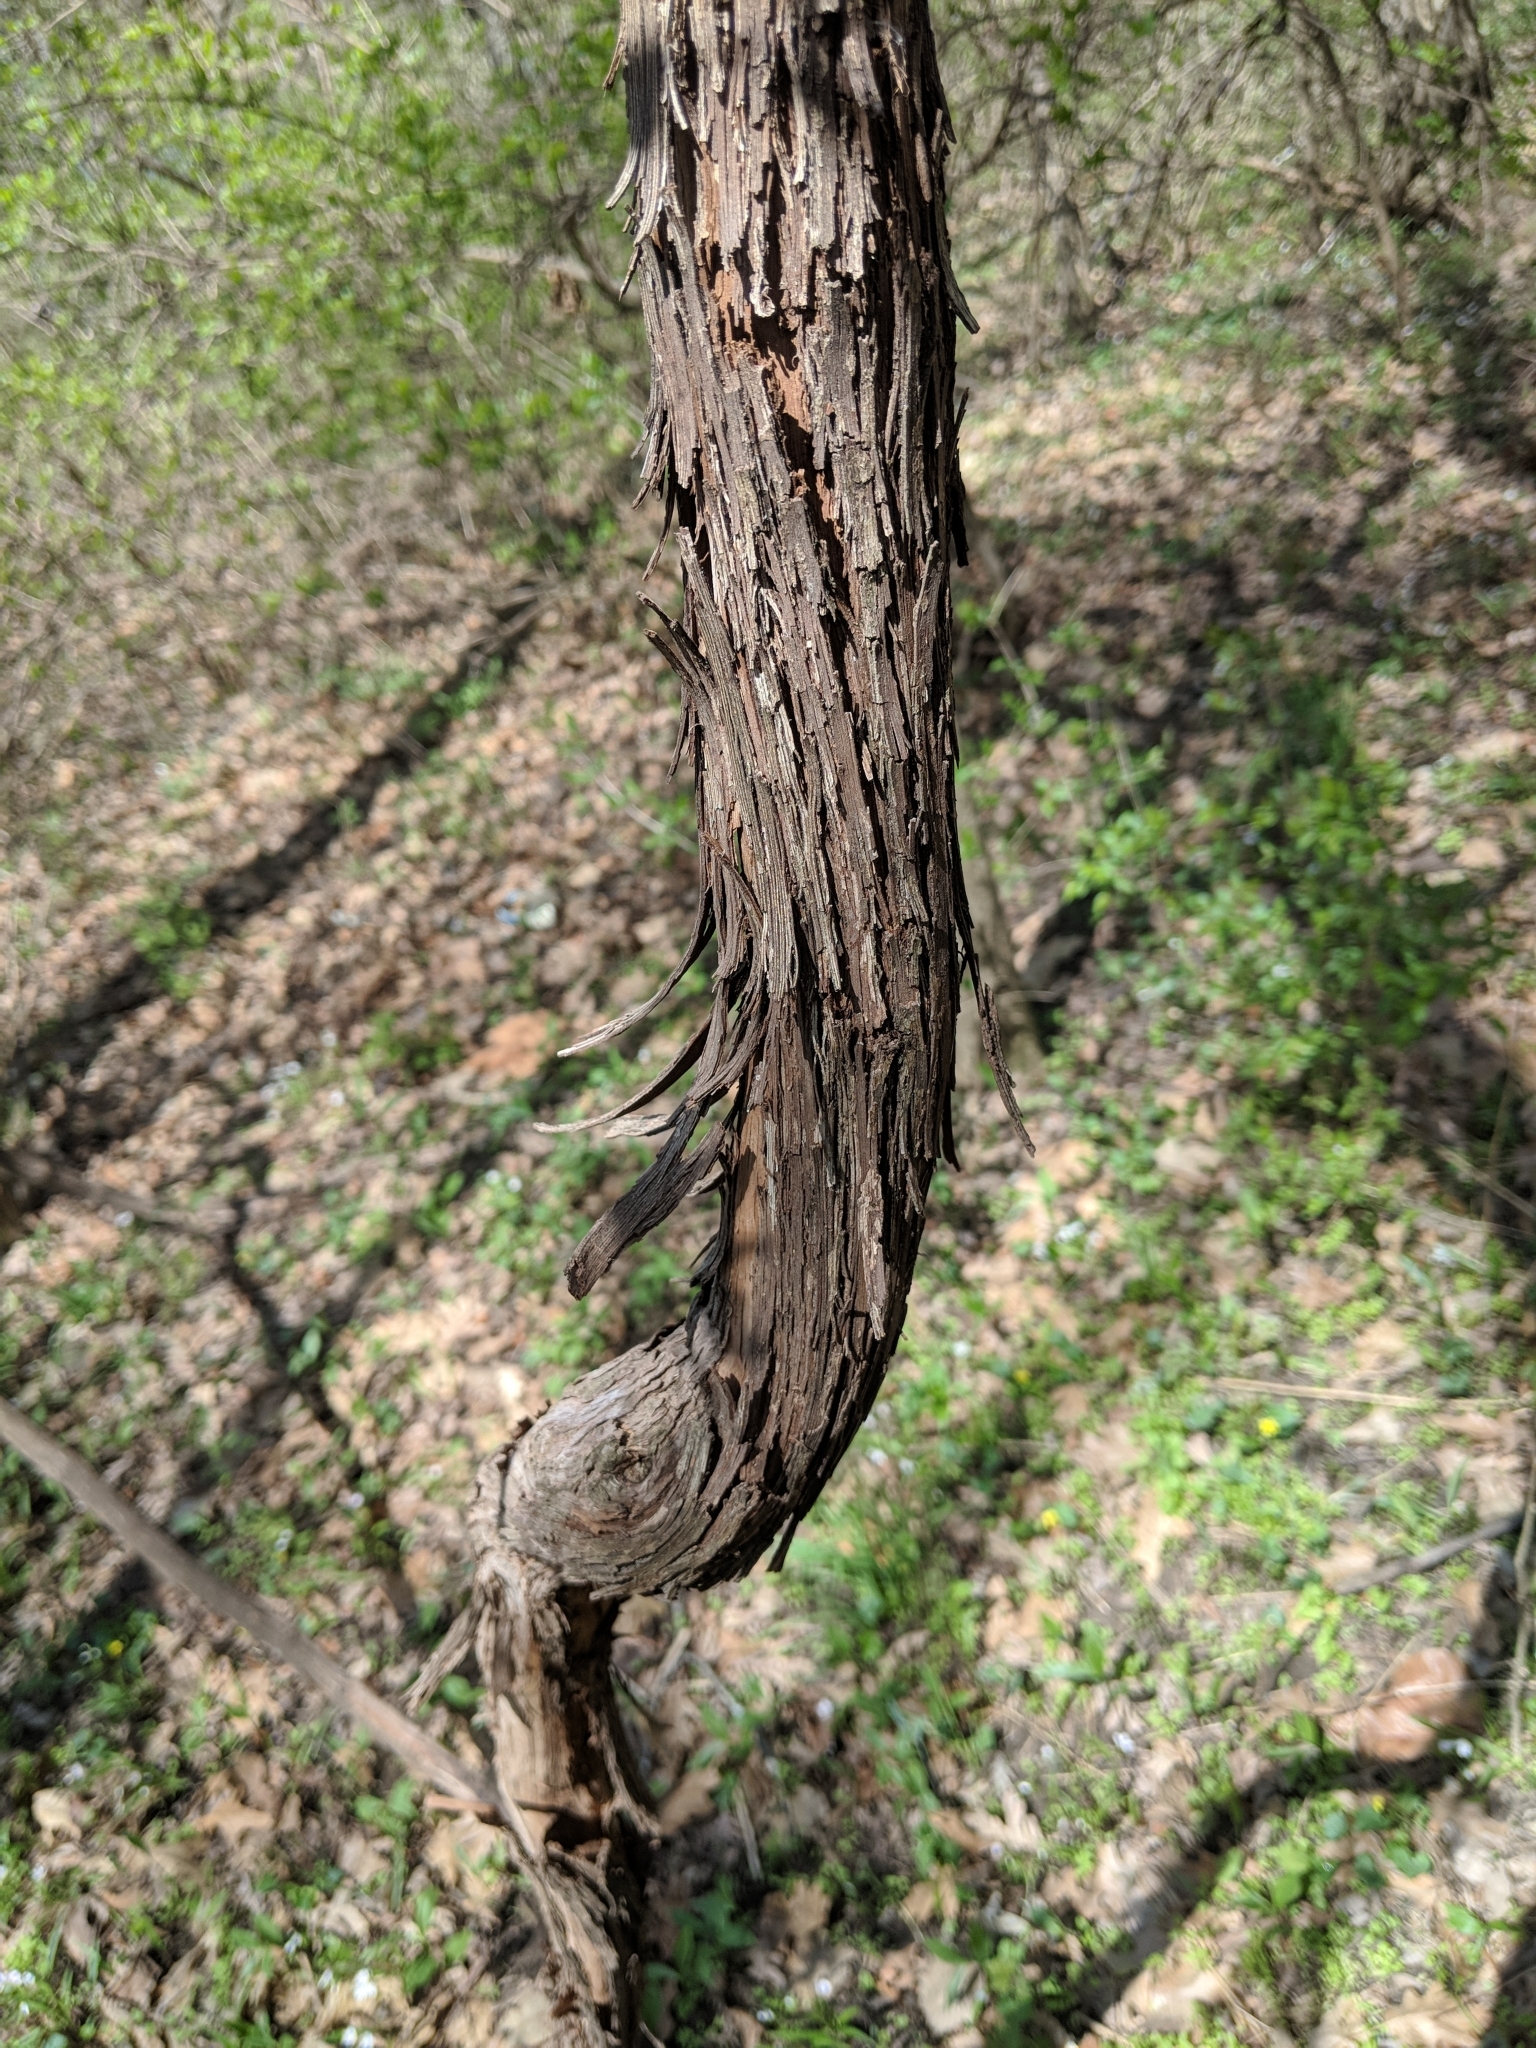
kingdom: Plantae
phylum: Tracheophyta
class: Magnoliopsida
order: Vitales
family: Vitaceae
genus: Vitis
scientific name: Vitis riparia
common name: Frost grape
